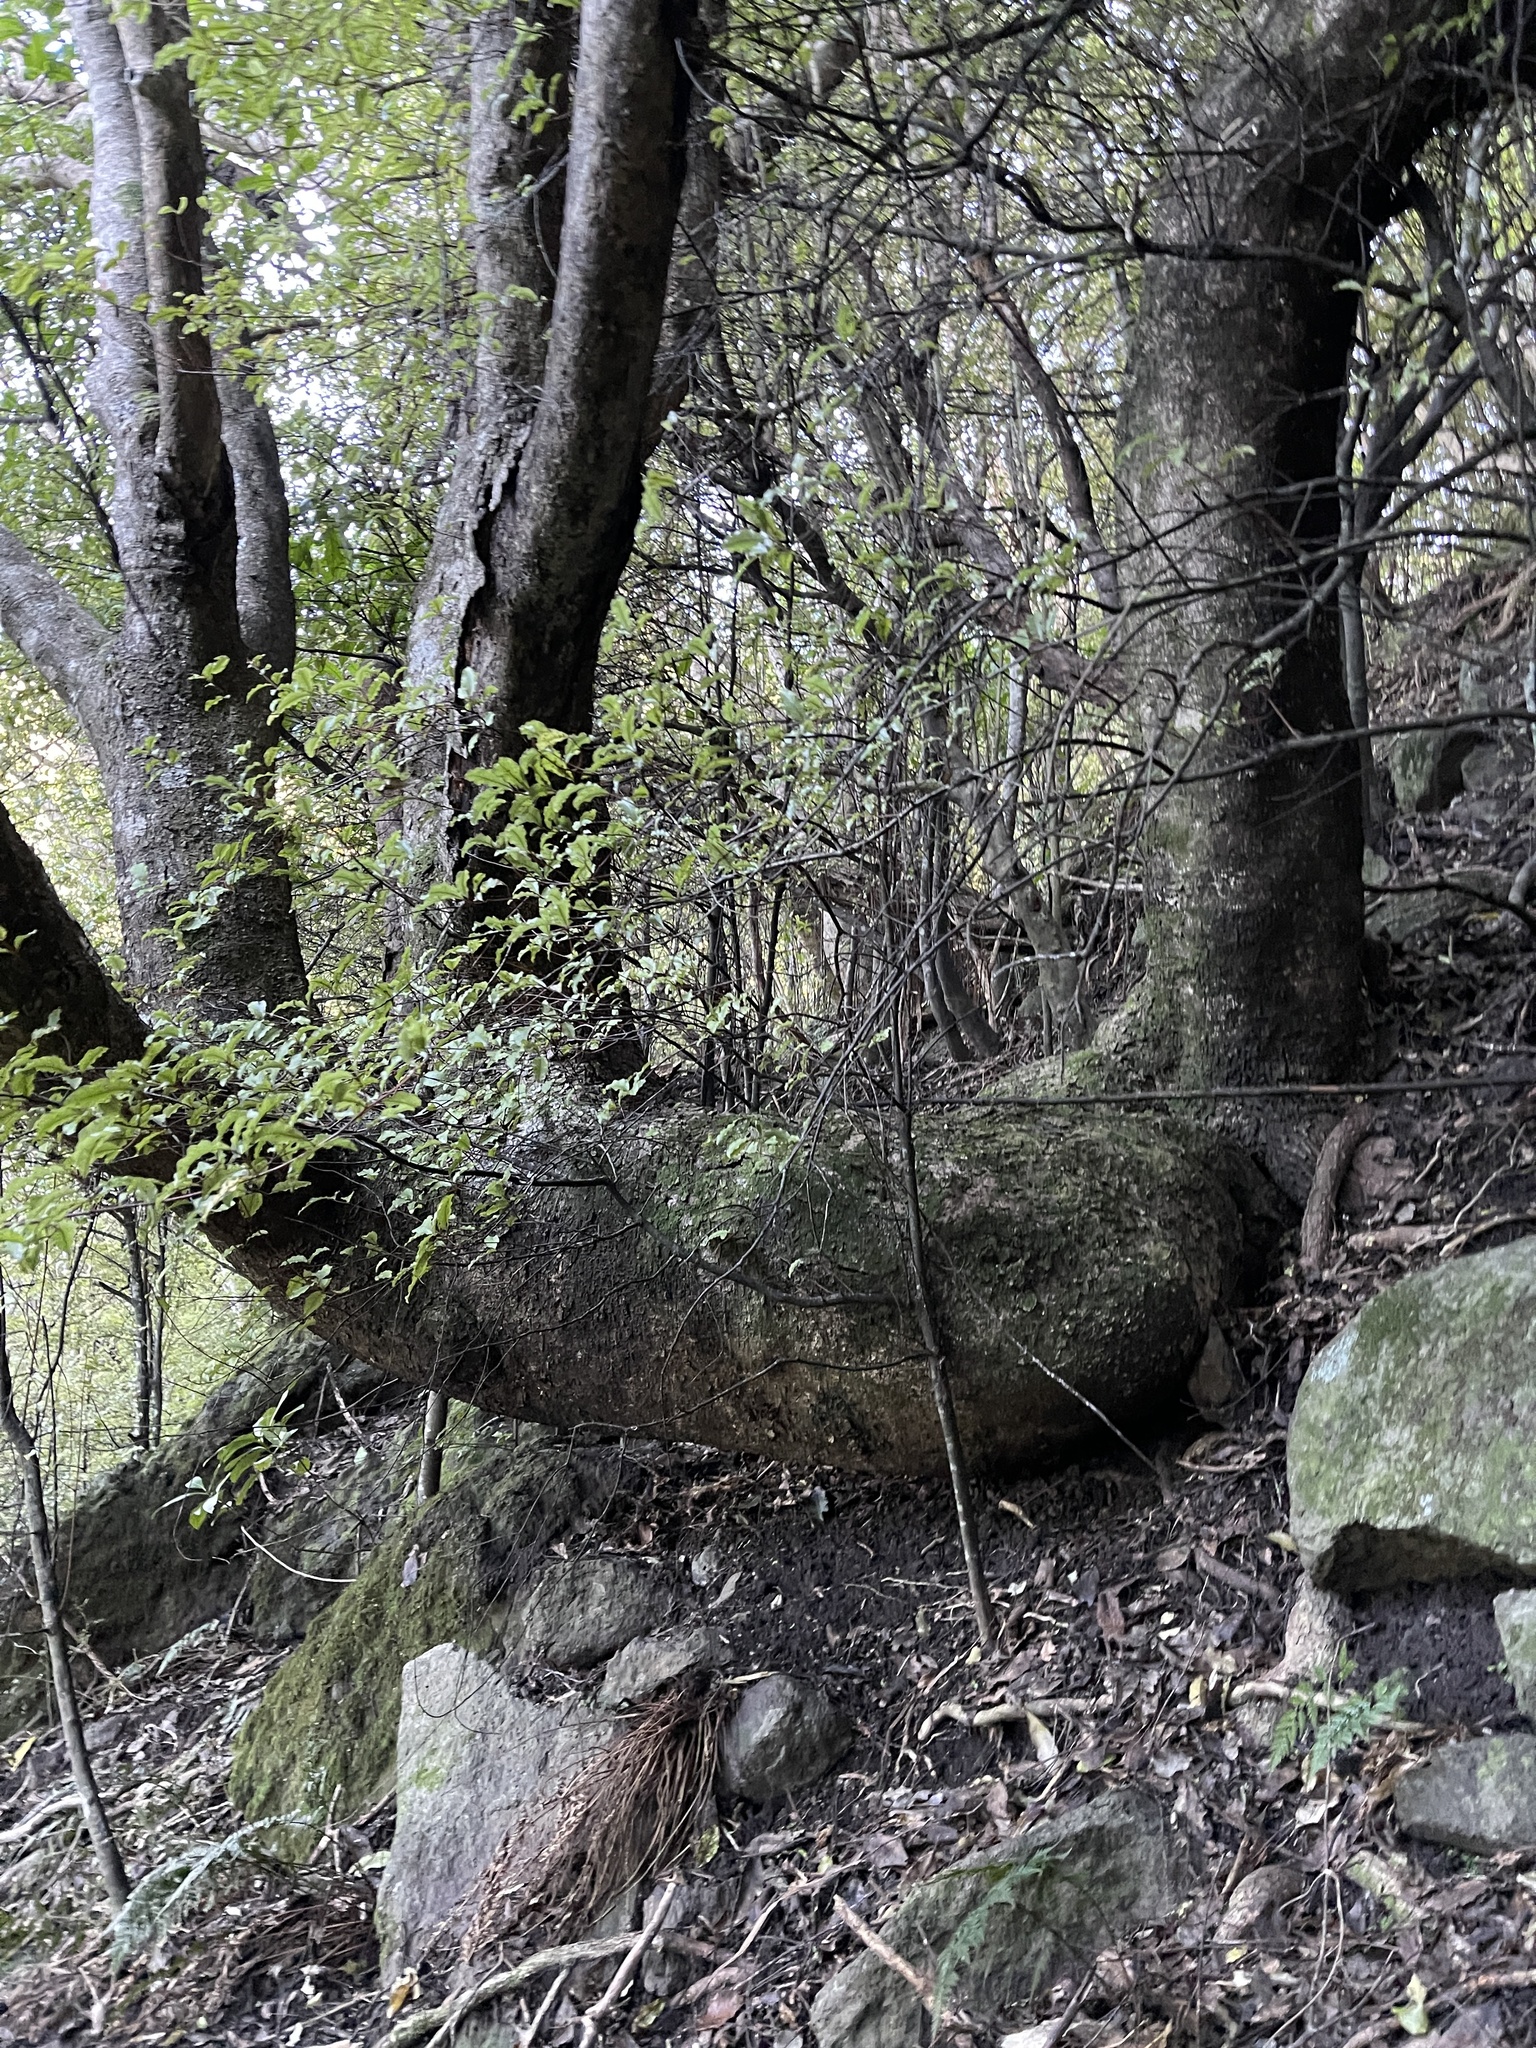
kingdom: Plantae
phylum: Tracheophyta
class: Magnoliopsida
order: Apiales
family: Araliaceae
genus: Neopanax
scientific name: Neopanax arboreus
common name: Five-fingers
